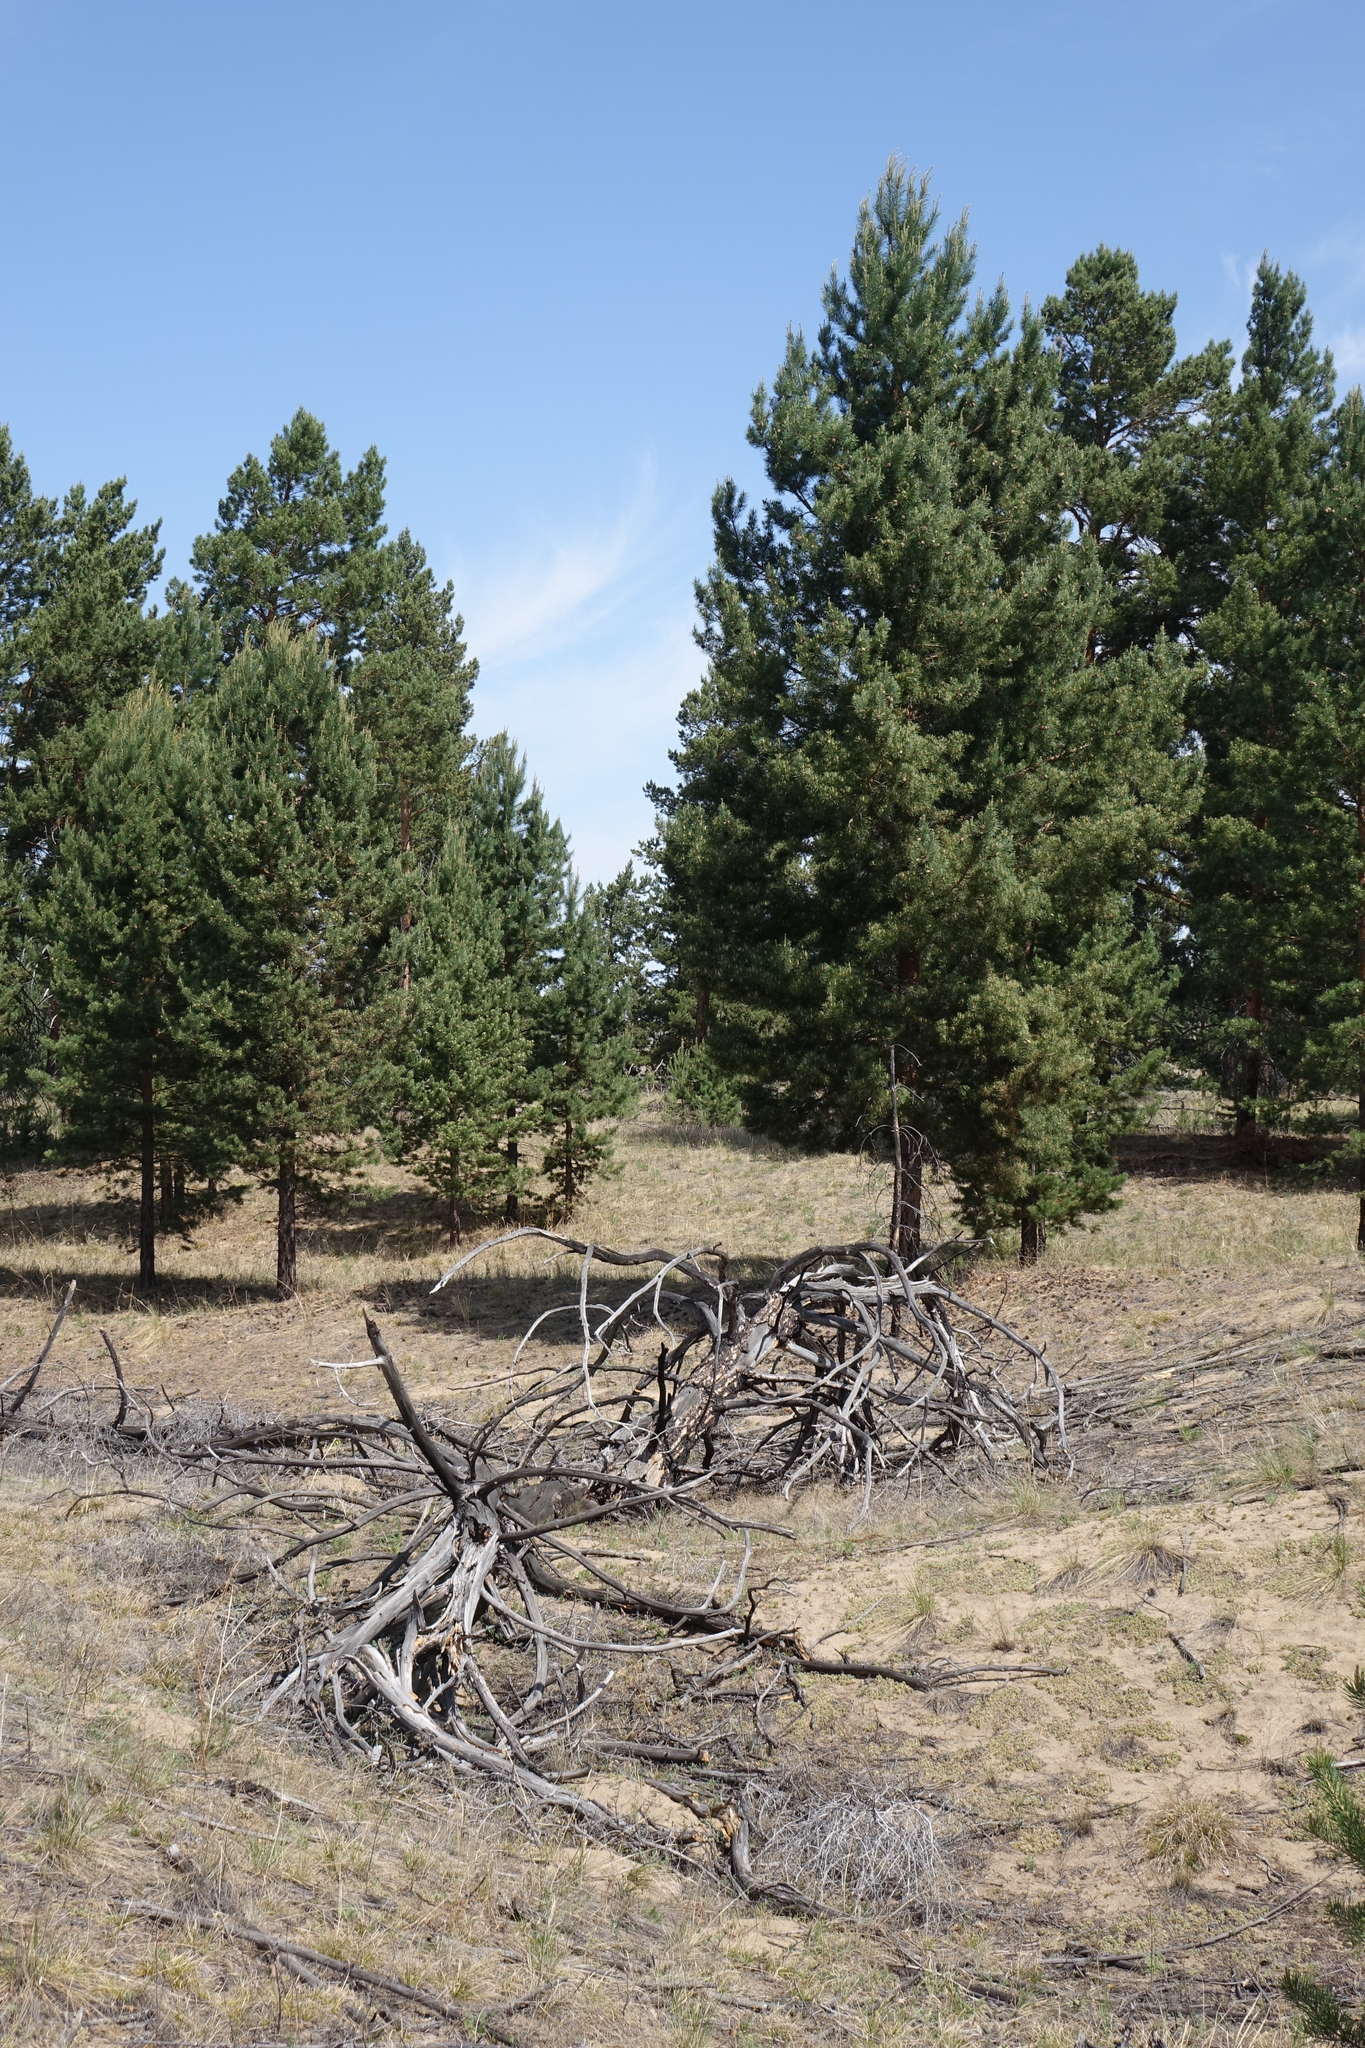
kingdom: Plantae
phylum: Tracheophyta
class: Pinopsida
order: Pinales
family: Pinaceae
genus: Pinus
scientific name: Pinus sylvestris
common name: Scots pine
